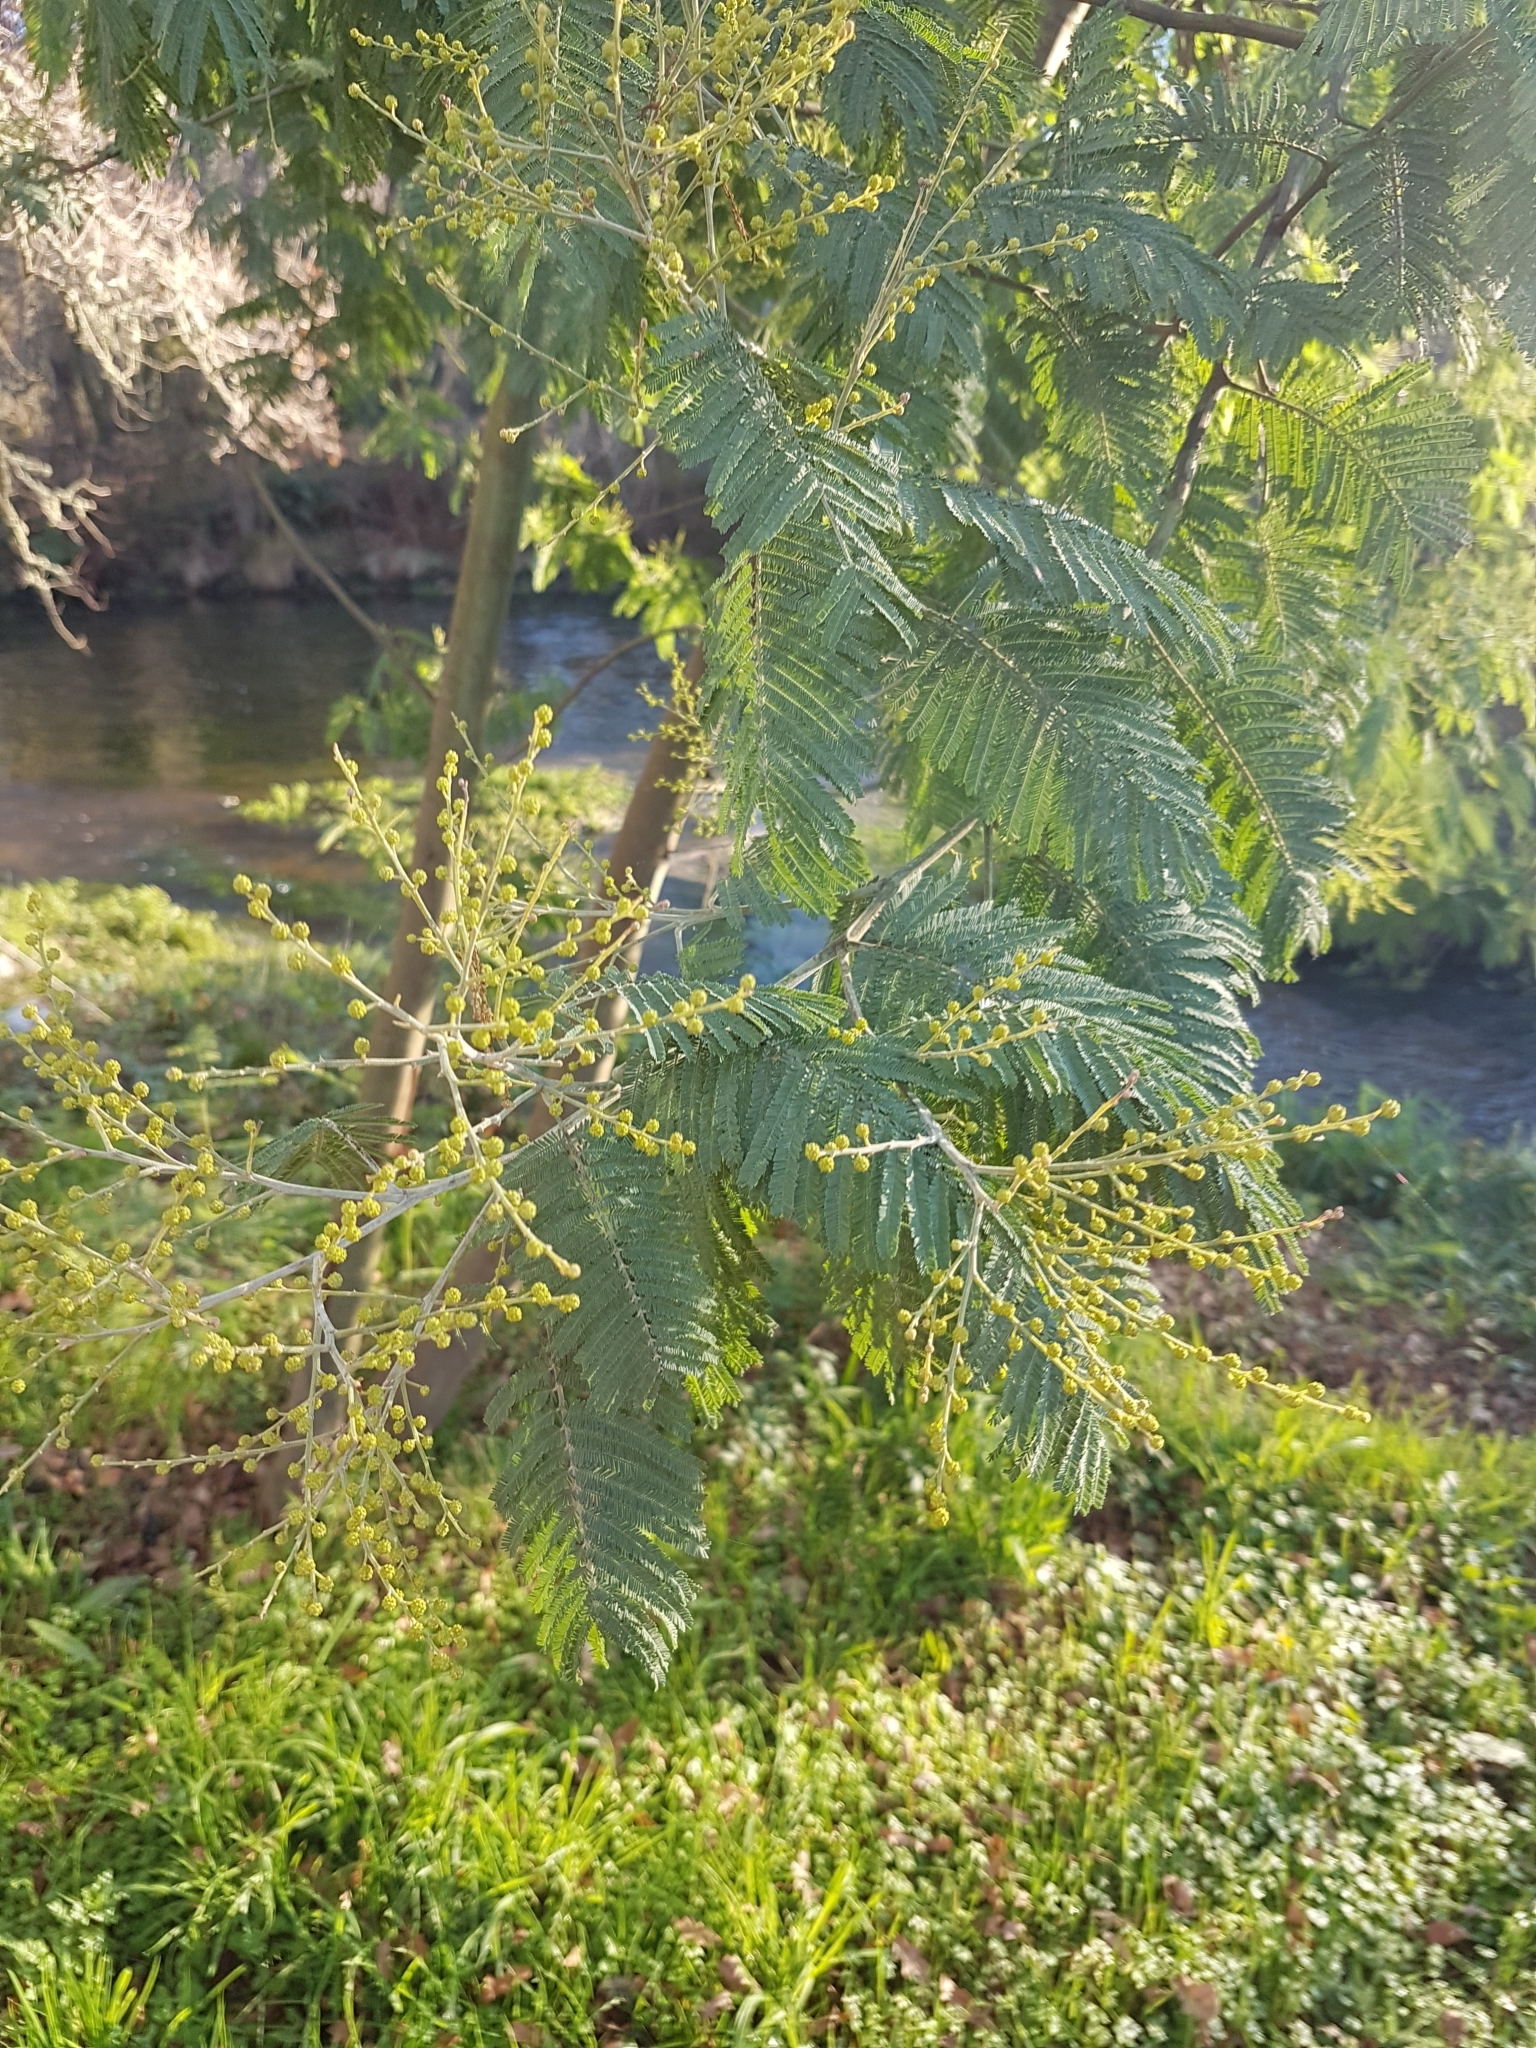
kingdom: Plantae
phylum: Tracheophyta
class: Magnoliopsida
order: Fabales
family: Fabaceae
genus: Acacia
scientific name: Acacia dealbata
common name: Silver wattle
